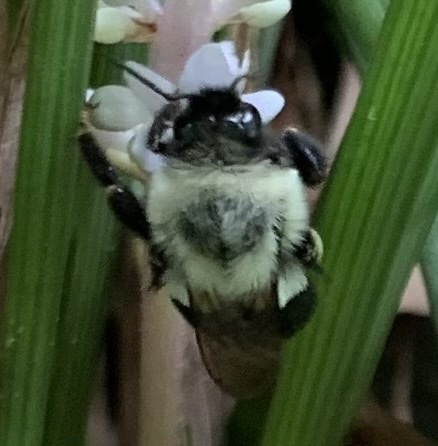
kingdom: Animalia
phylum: Arthropoda
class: Insecta
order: Hymenoptera
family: Apidae
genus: Bombus
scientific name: Bombus impatiens
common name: Common eastern bumble bee
